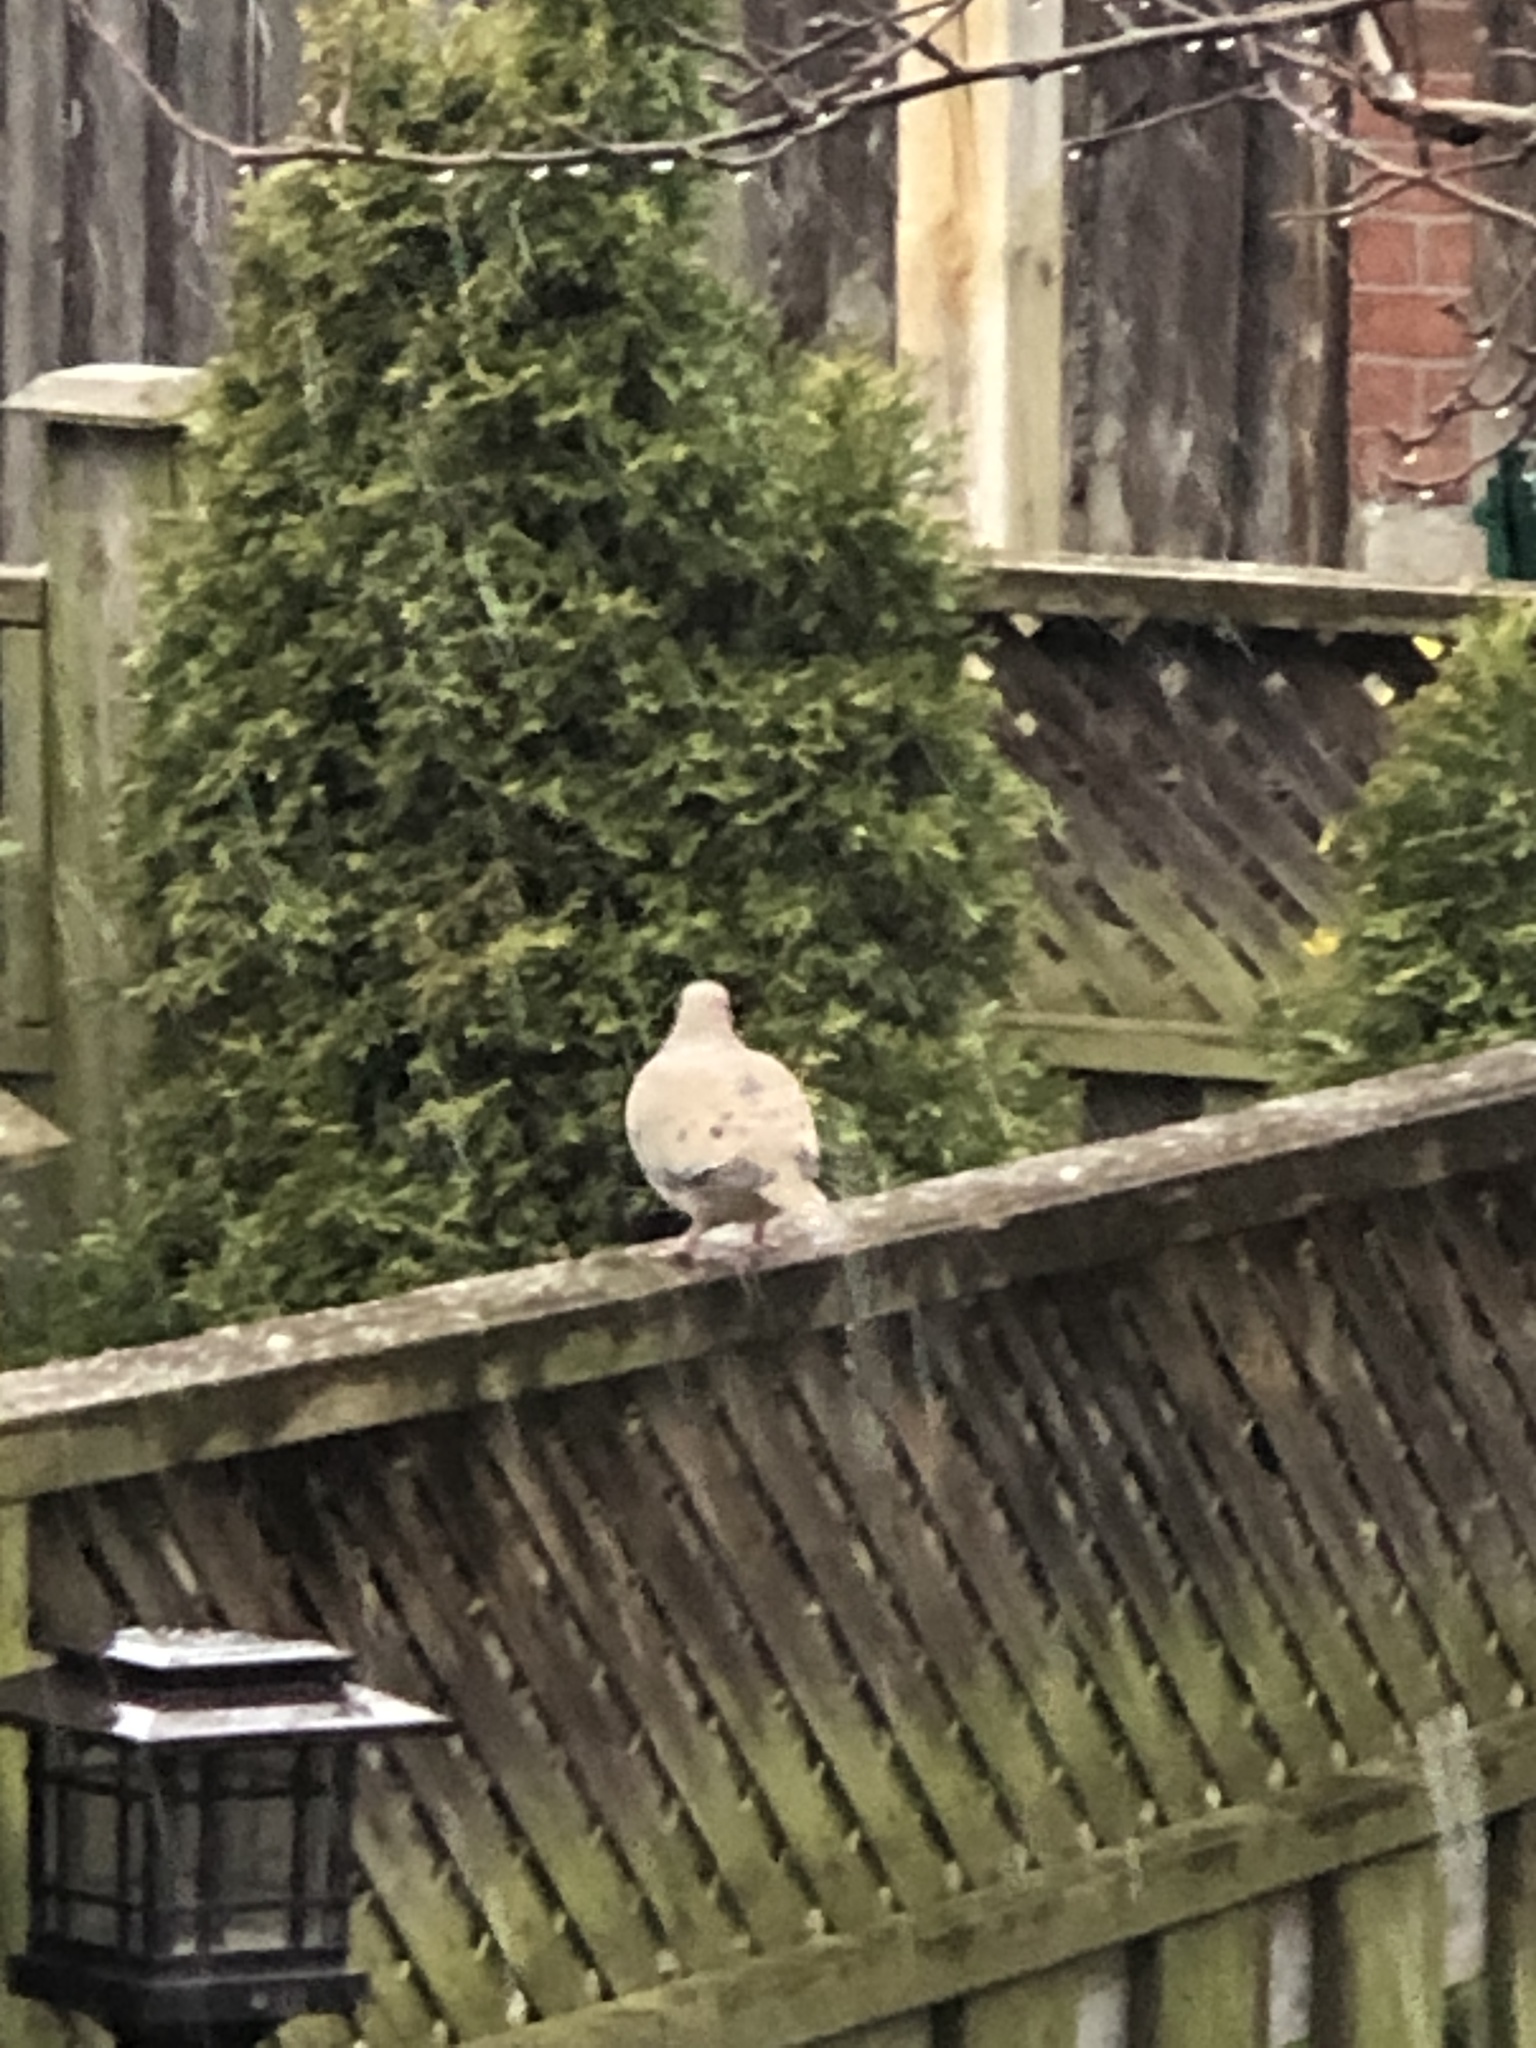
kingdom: Animalia
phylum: Chordata
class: Aves
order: Columbiformes
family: Columbidae
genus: Zenaida
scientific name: Zenaida macroura
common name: Mourning dove
